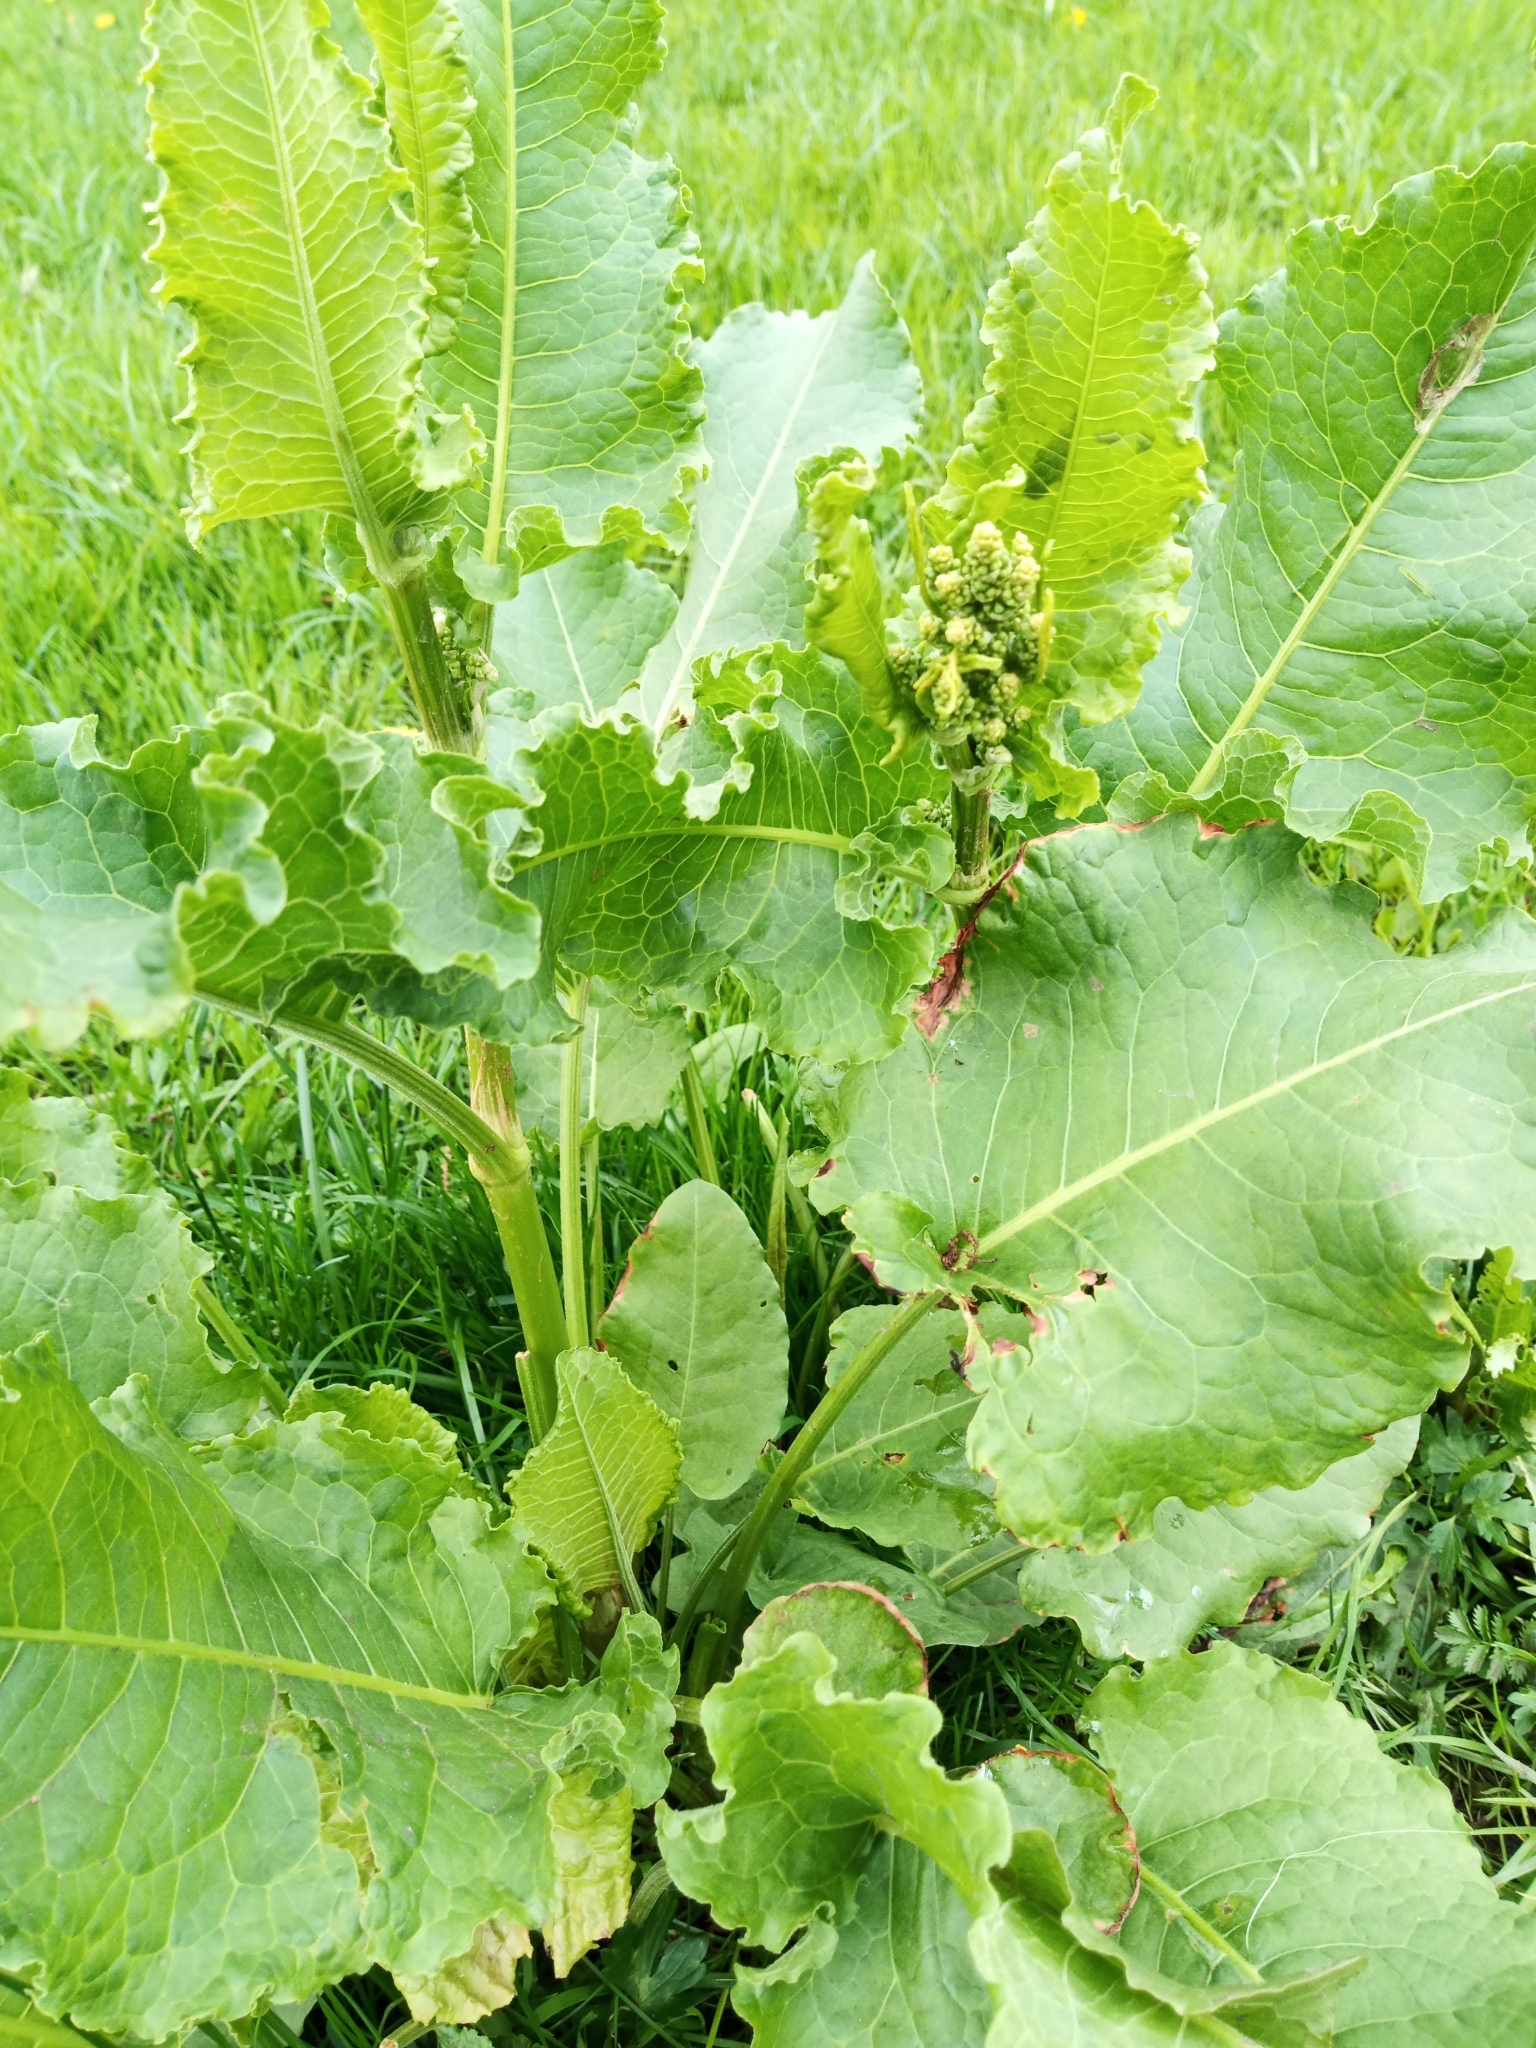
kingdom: Plantae
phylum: Tracheophyta
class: Magnoliopsida
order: Caryophyllales
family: Polygonaceae
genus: Rumex
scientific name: Rumex confertus
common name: Russian dock
